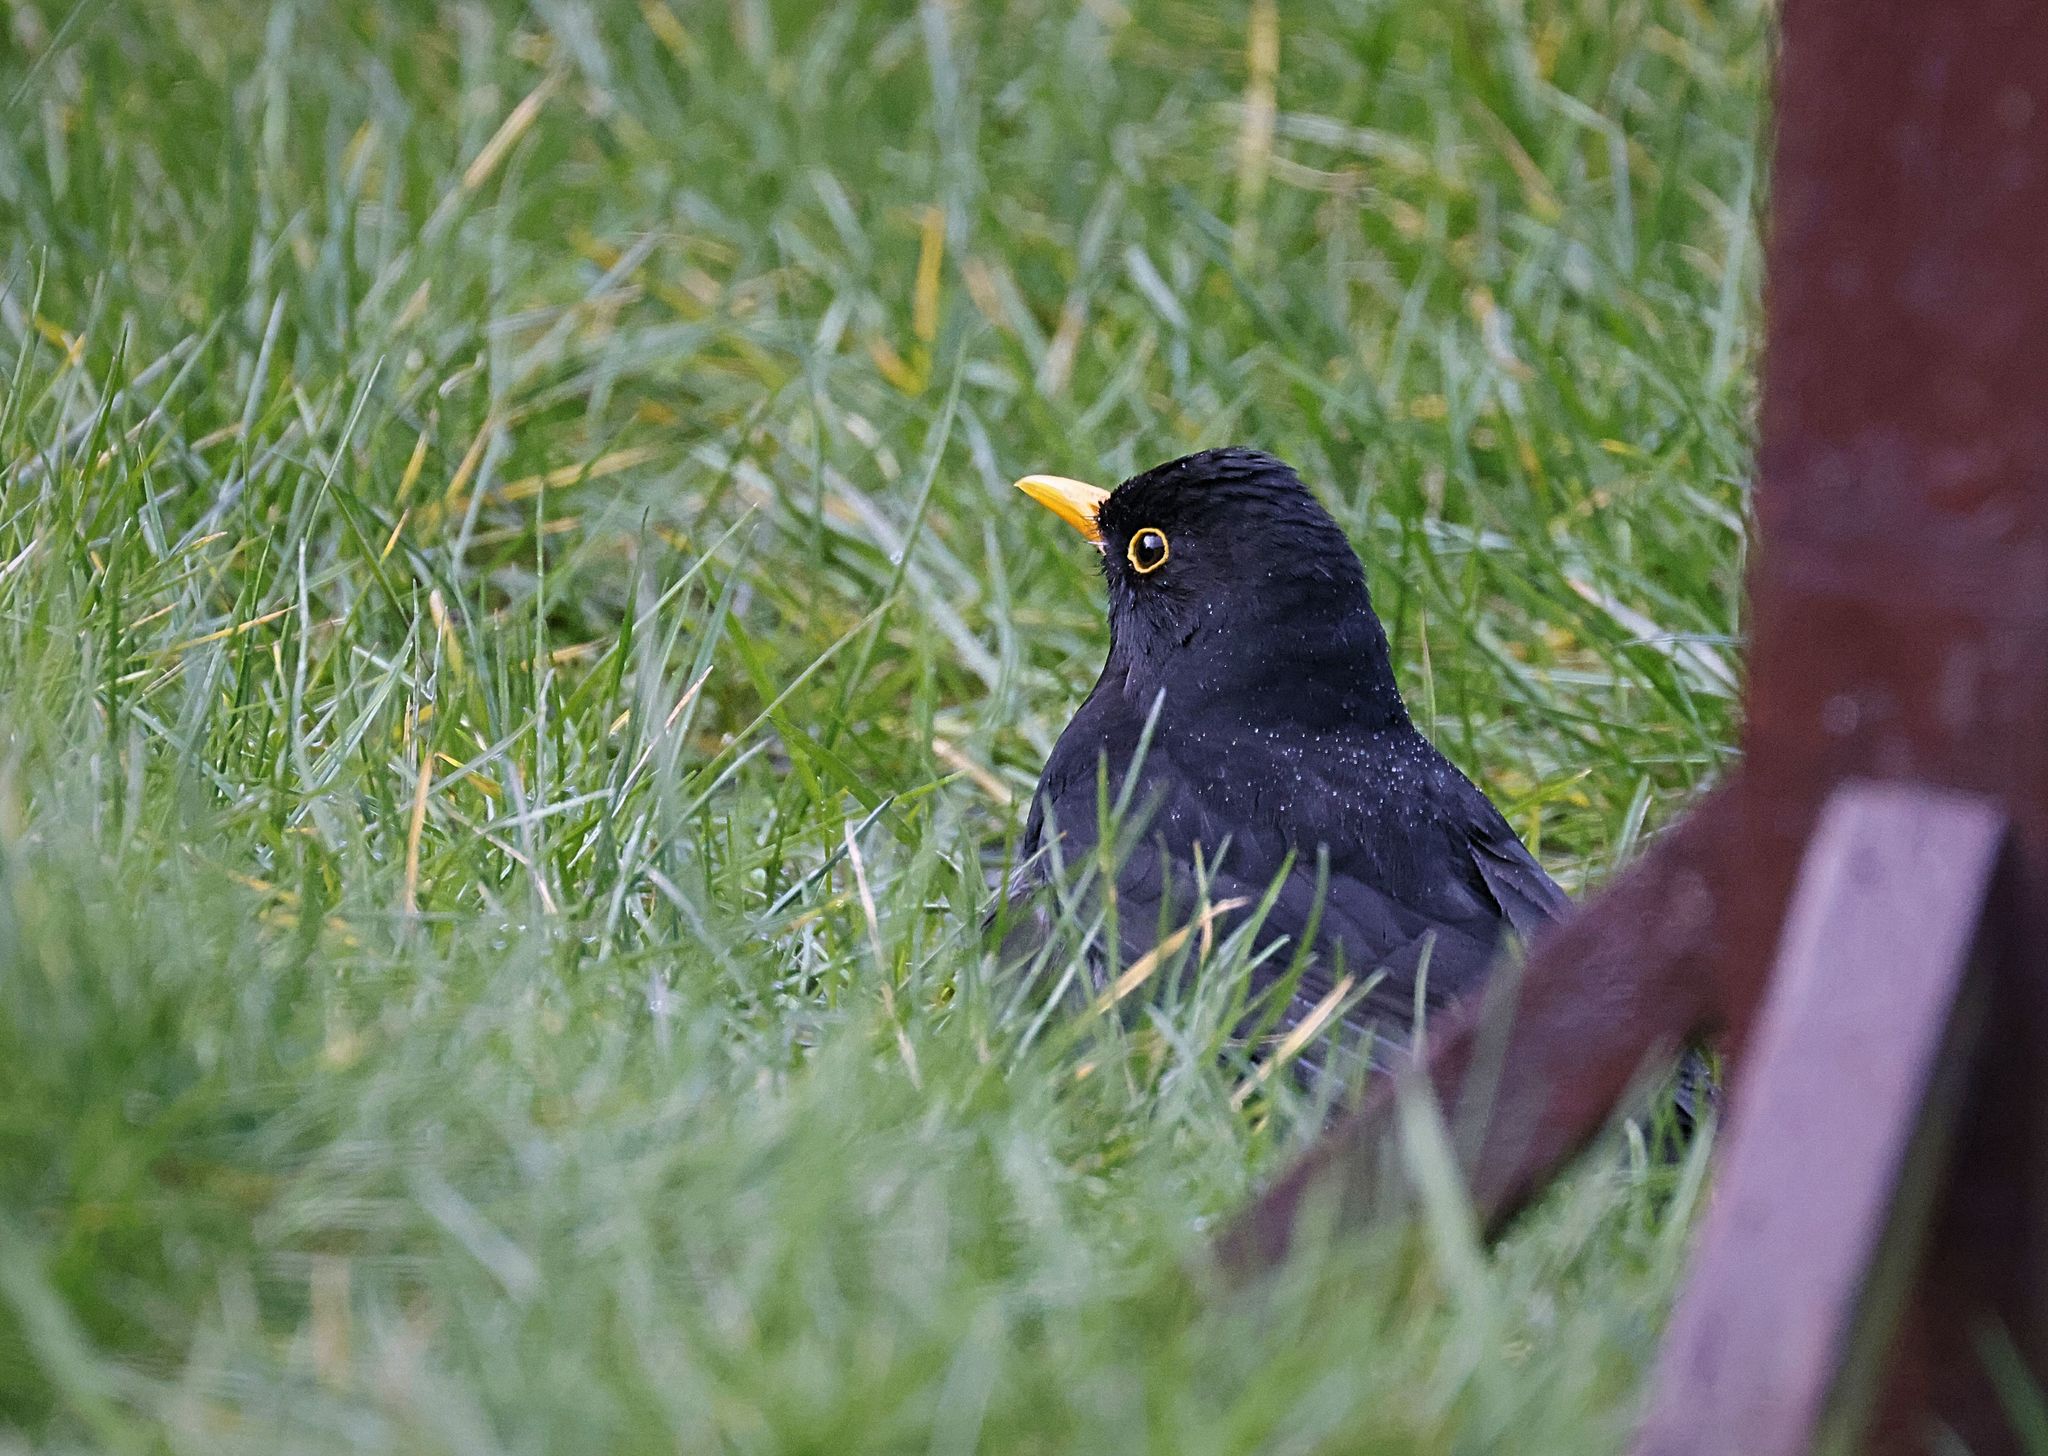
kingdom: Animalia
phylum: Chordata
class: Aves
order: Passeriformes
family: Turdidae
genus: Turdus
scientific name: Turdus merula
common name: Common blackbird
